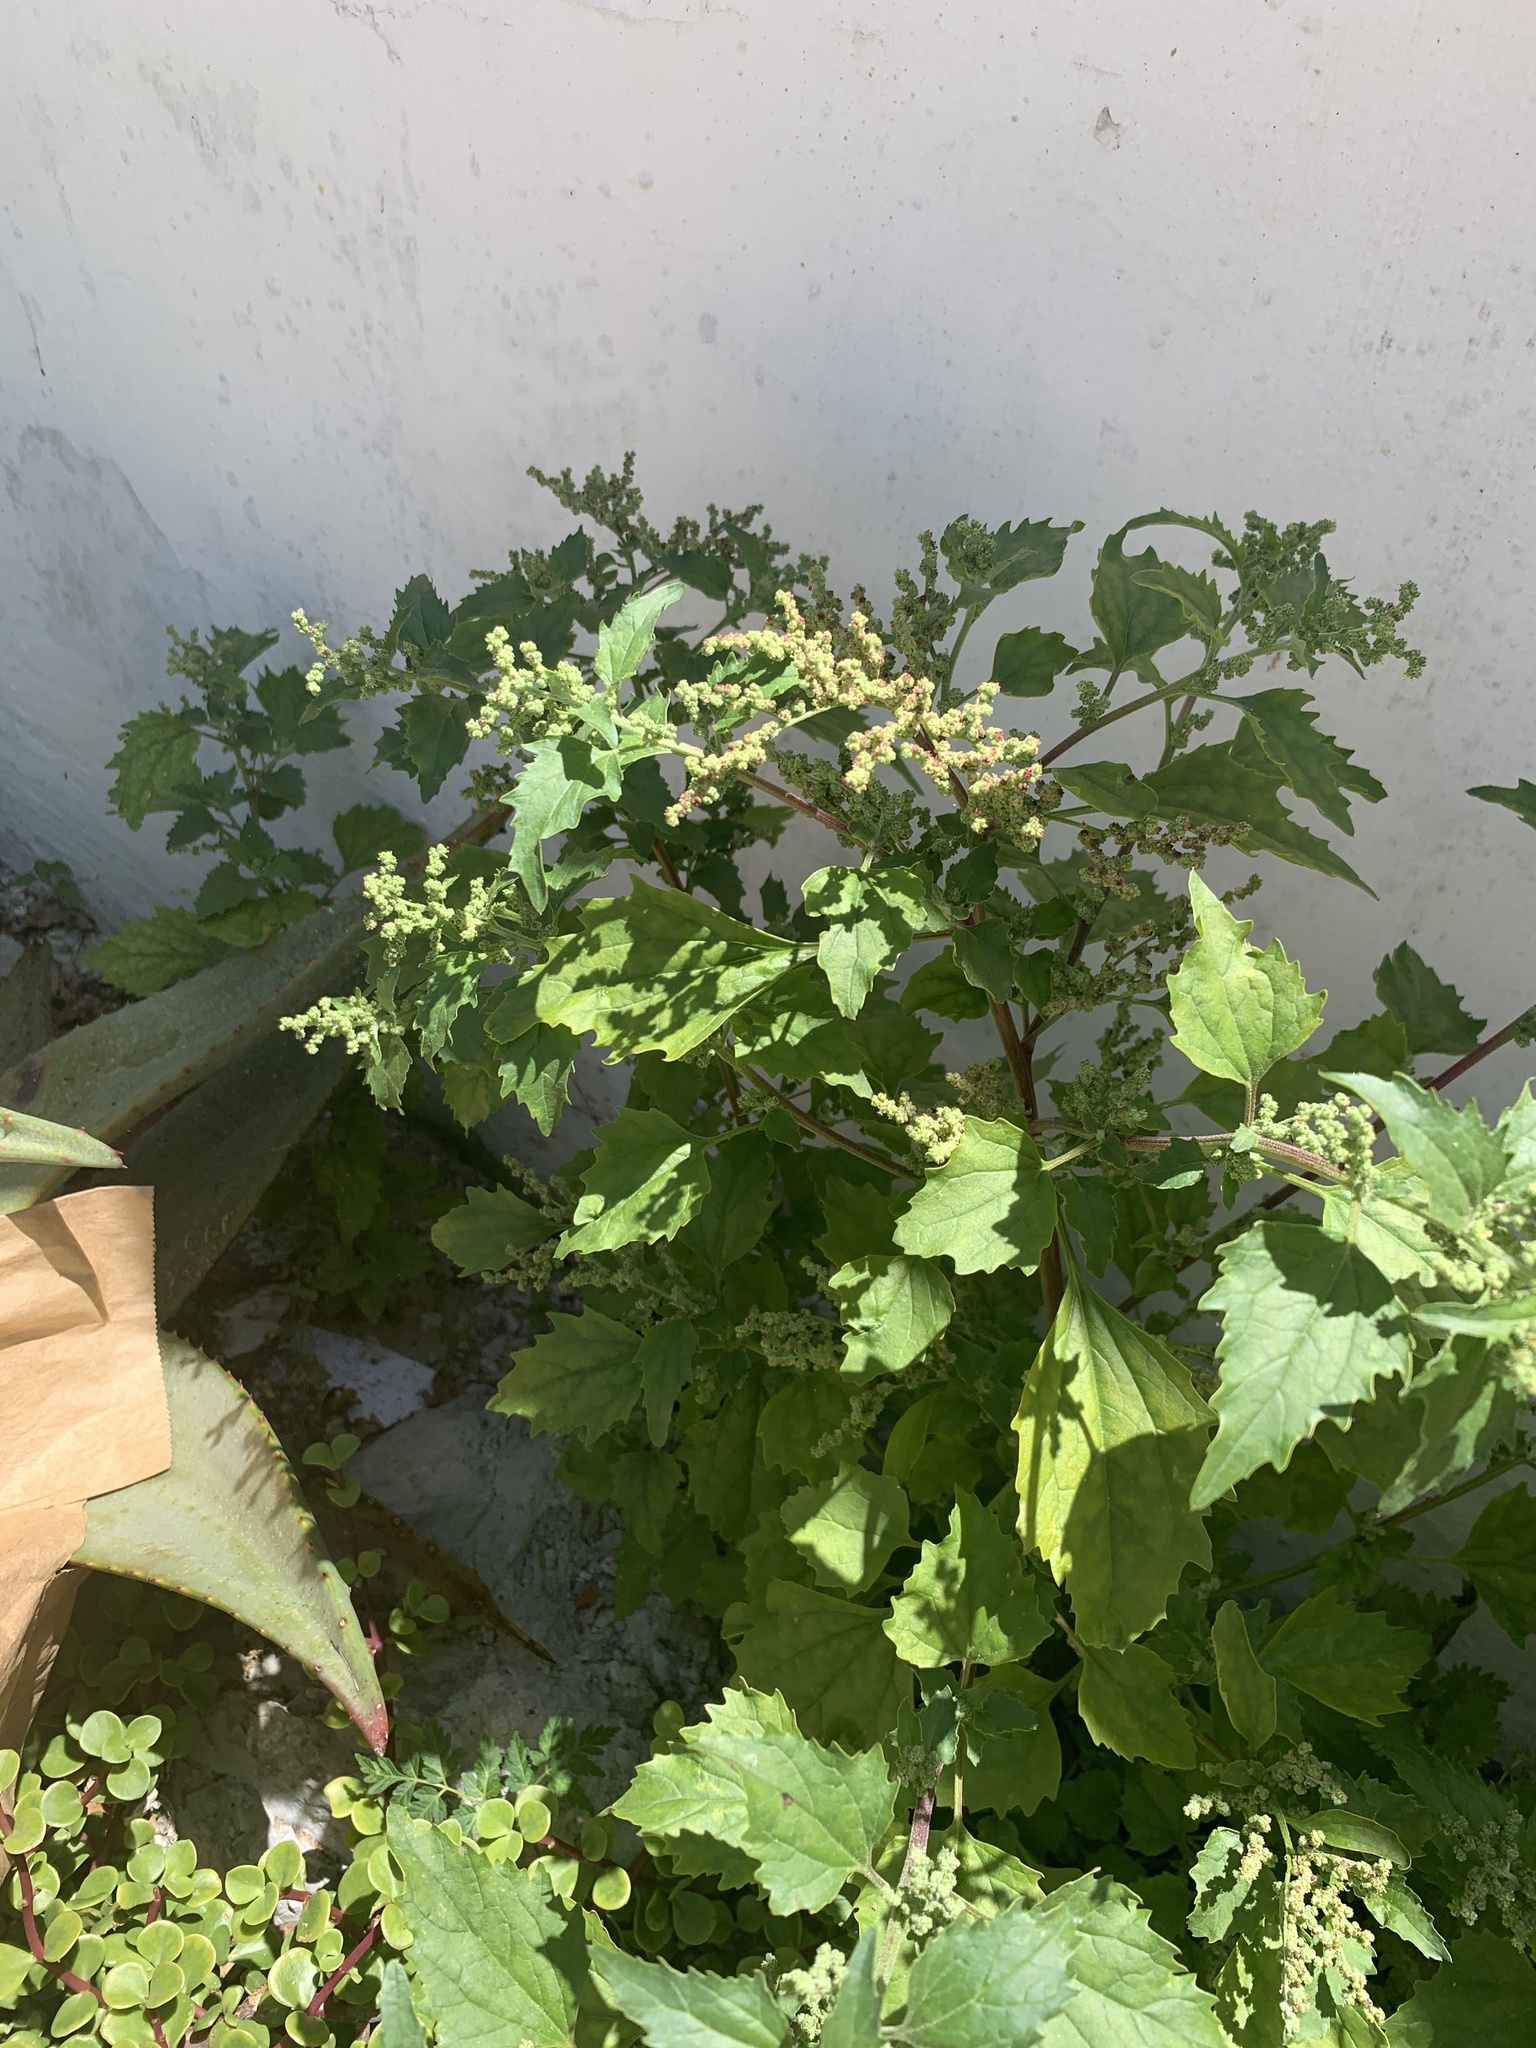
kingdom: Plantae
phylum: Tracheophyta
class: Magnoliopsida
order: Caryophyllales
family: Amaranthaceae
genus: Chenopodiastrum
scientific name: Chenopodiastrum murale
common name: Sowbane
